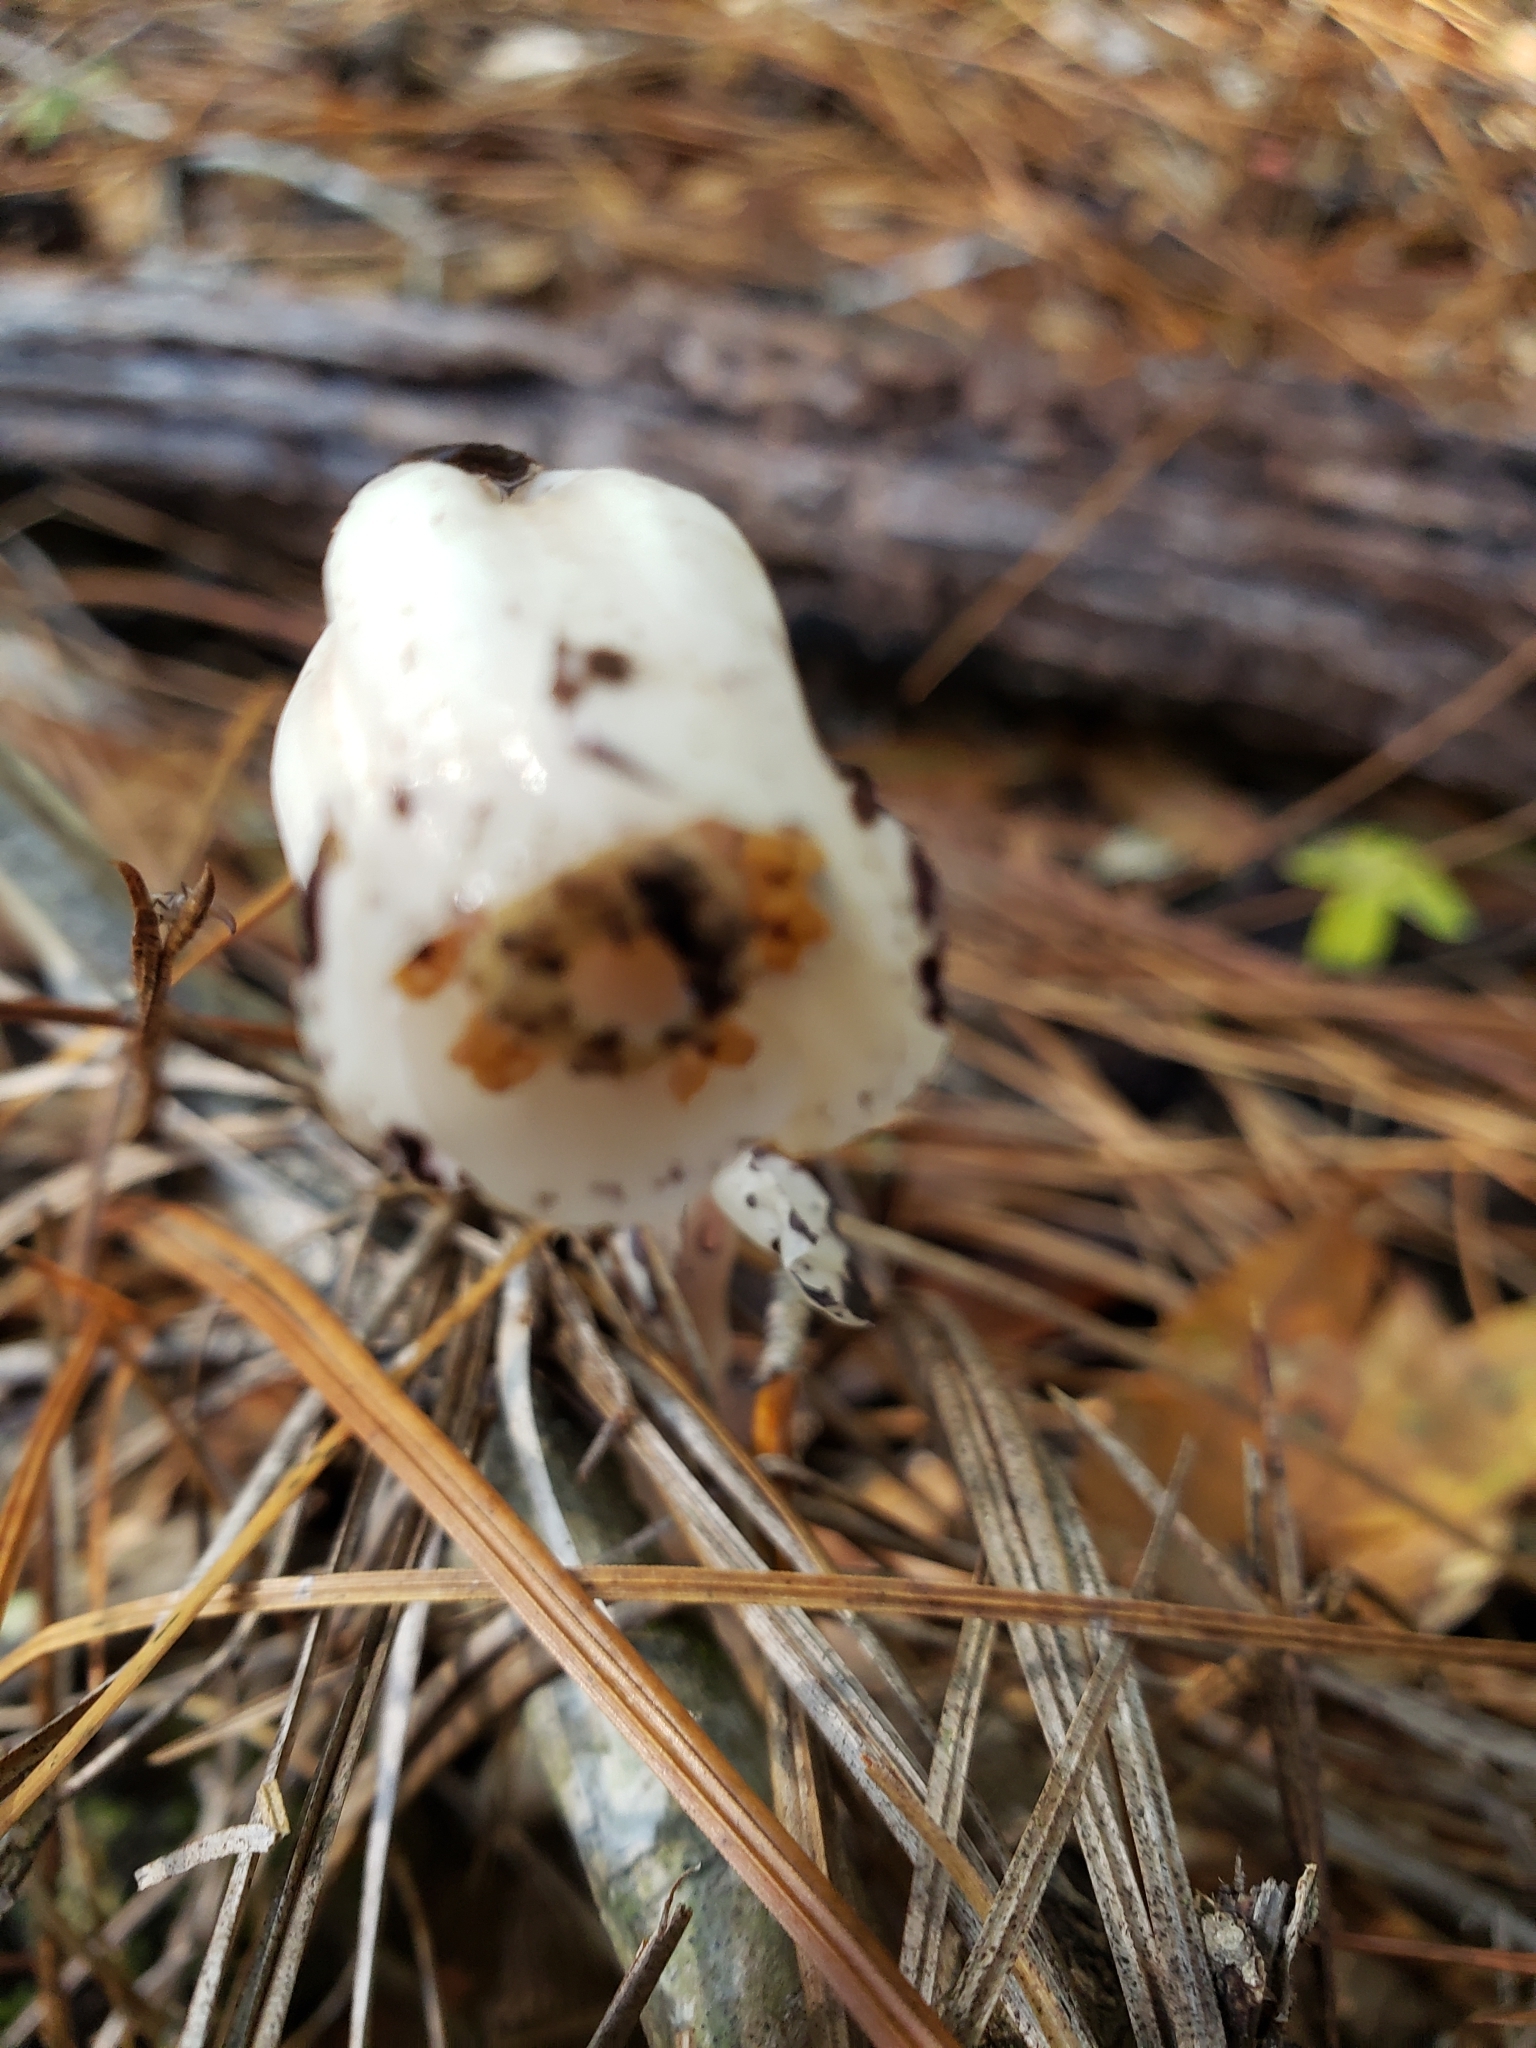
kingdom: Plantae
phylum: Tracheophyta
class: Magnoliopsida
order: Ericales
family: Ericaceae
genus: Monotropa
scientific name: Monotropa uniflora
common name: Convulsion root
